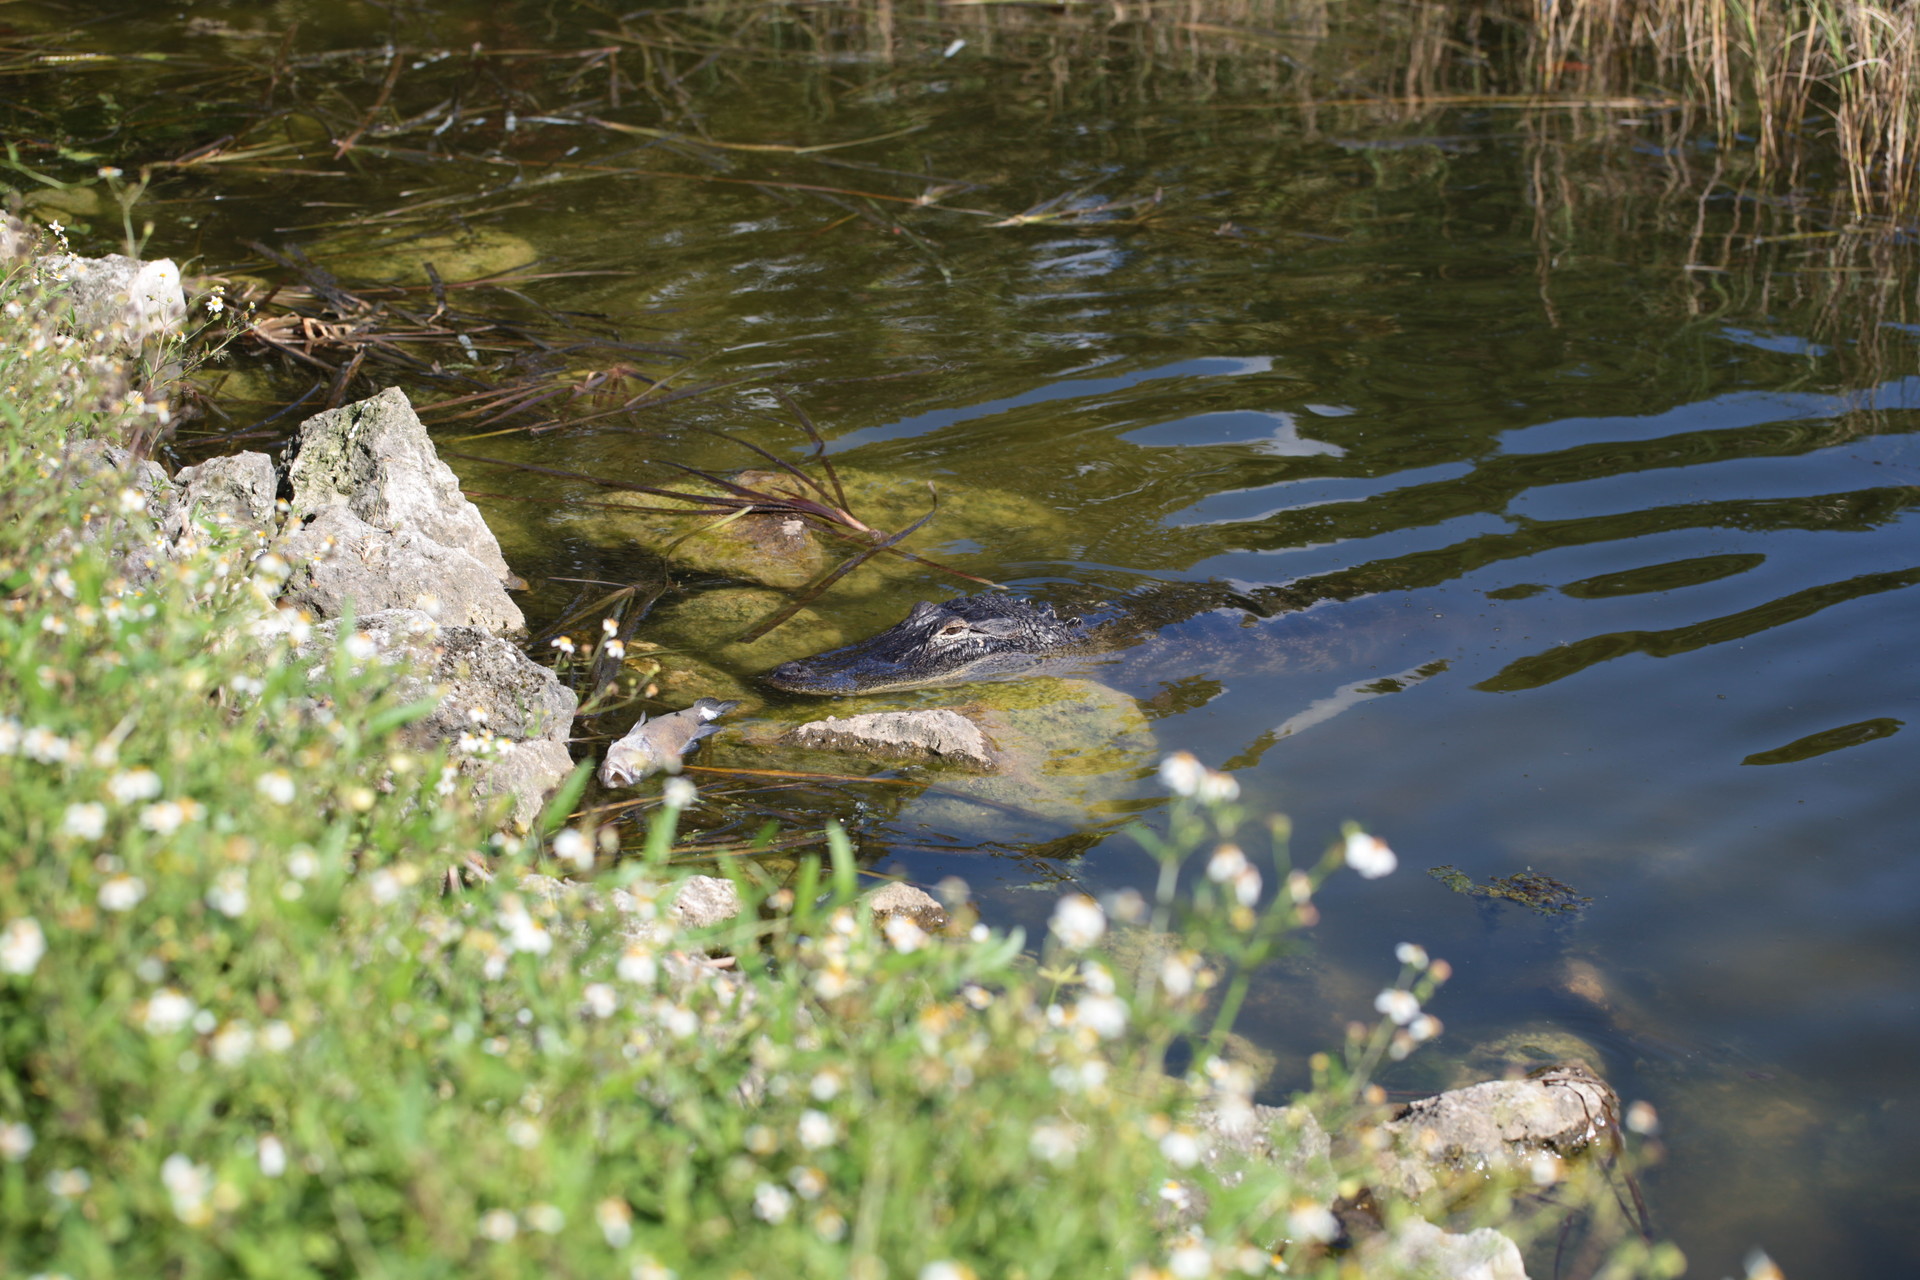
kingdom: Animalia
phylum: Chordata
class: Crocodylia
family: Alligatoridae
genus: Alligator
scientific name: Alligator mississippiensis
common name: American alligator
